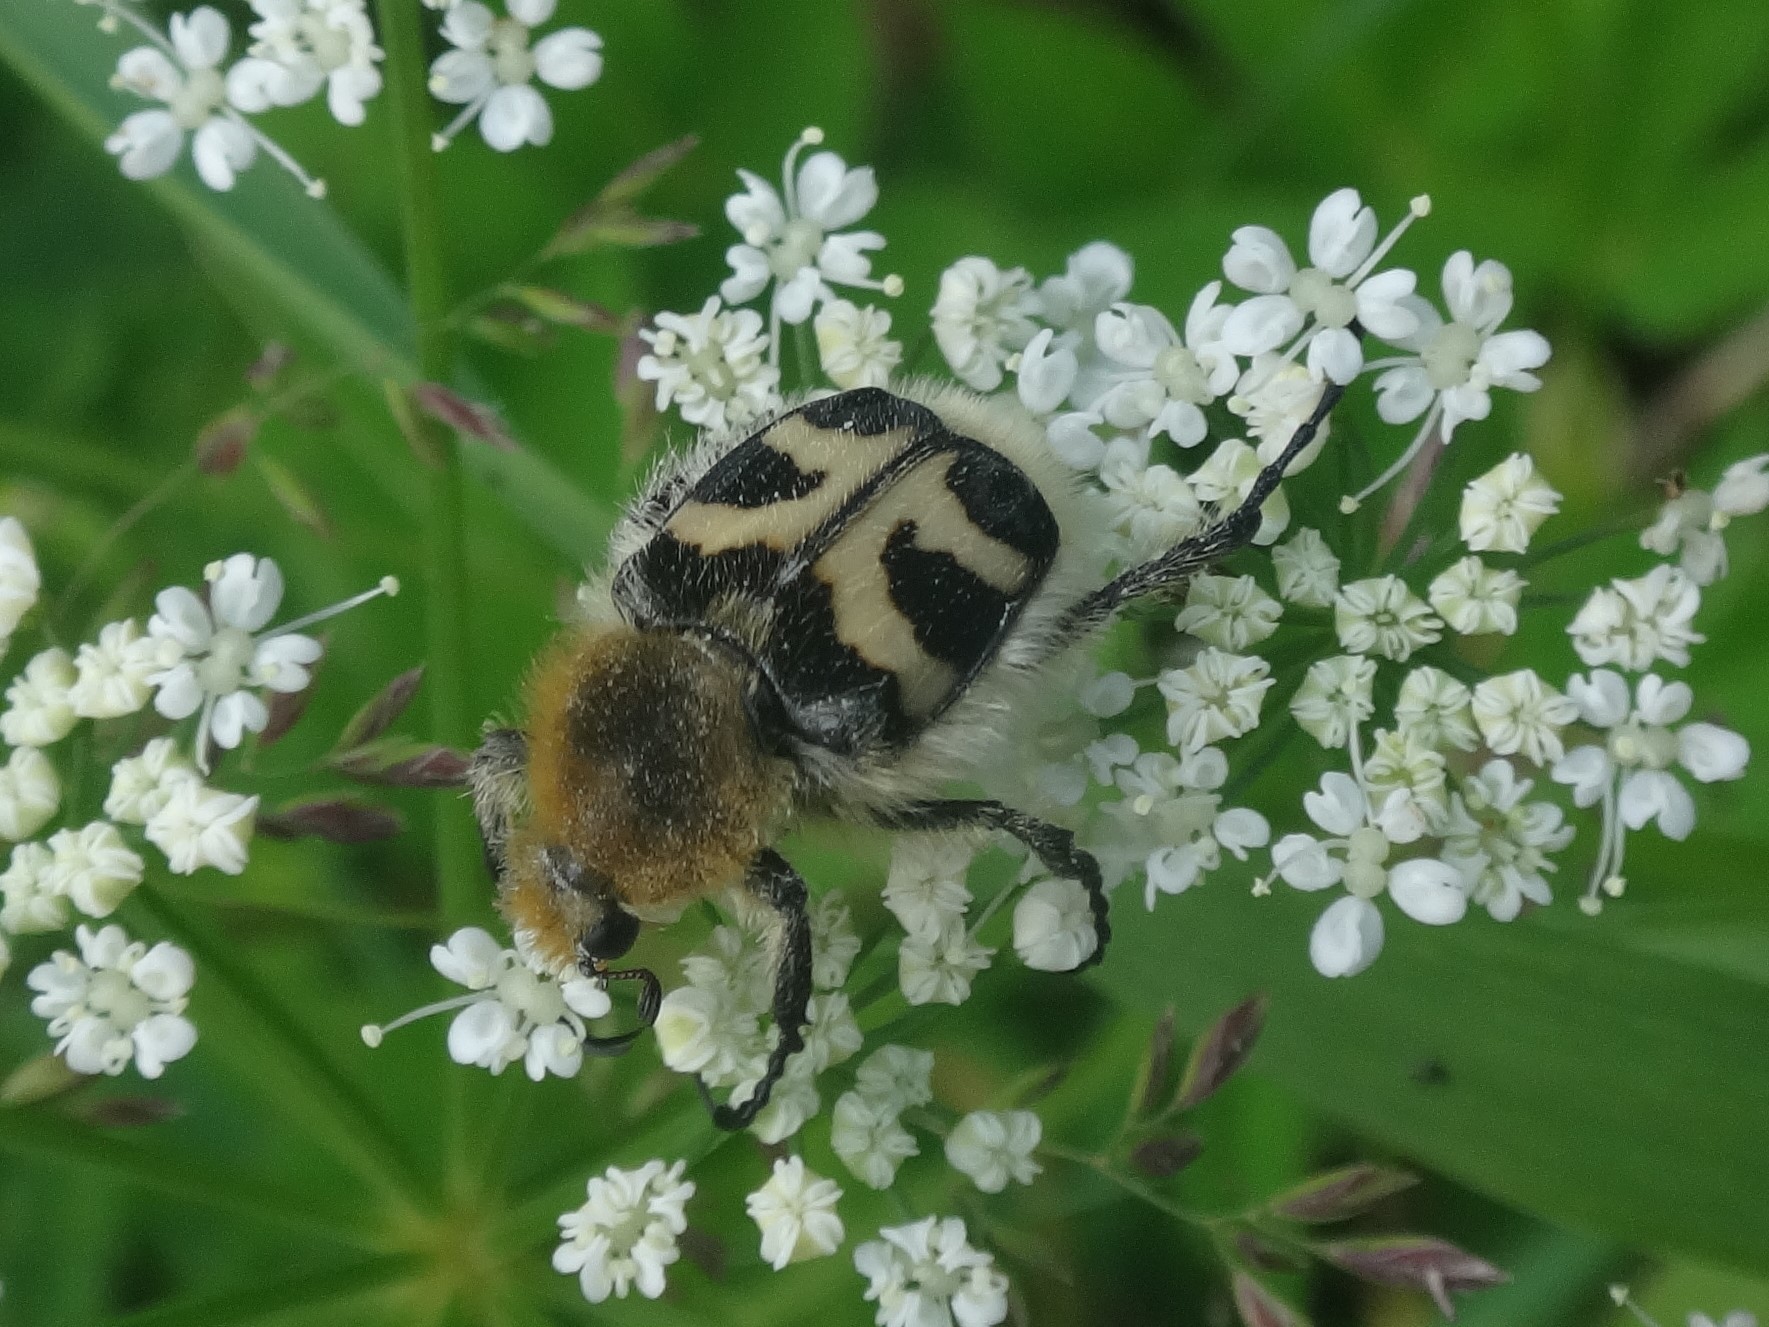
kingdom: Animalia
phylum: Arthropoda
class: Insecta
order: Coleoptera
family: Scarabaeidae
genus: Trichius
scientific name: Trichius fasciatus
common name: Bee beetle
